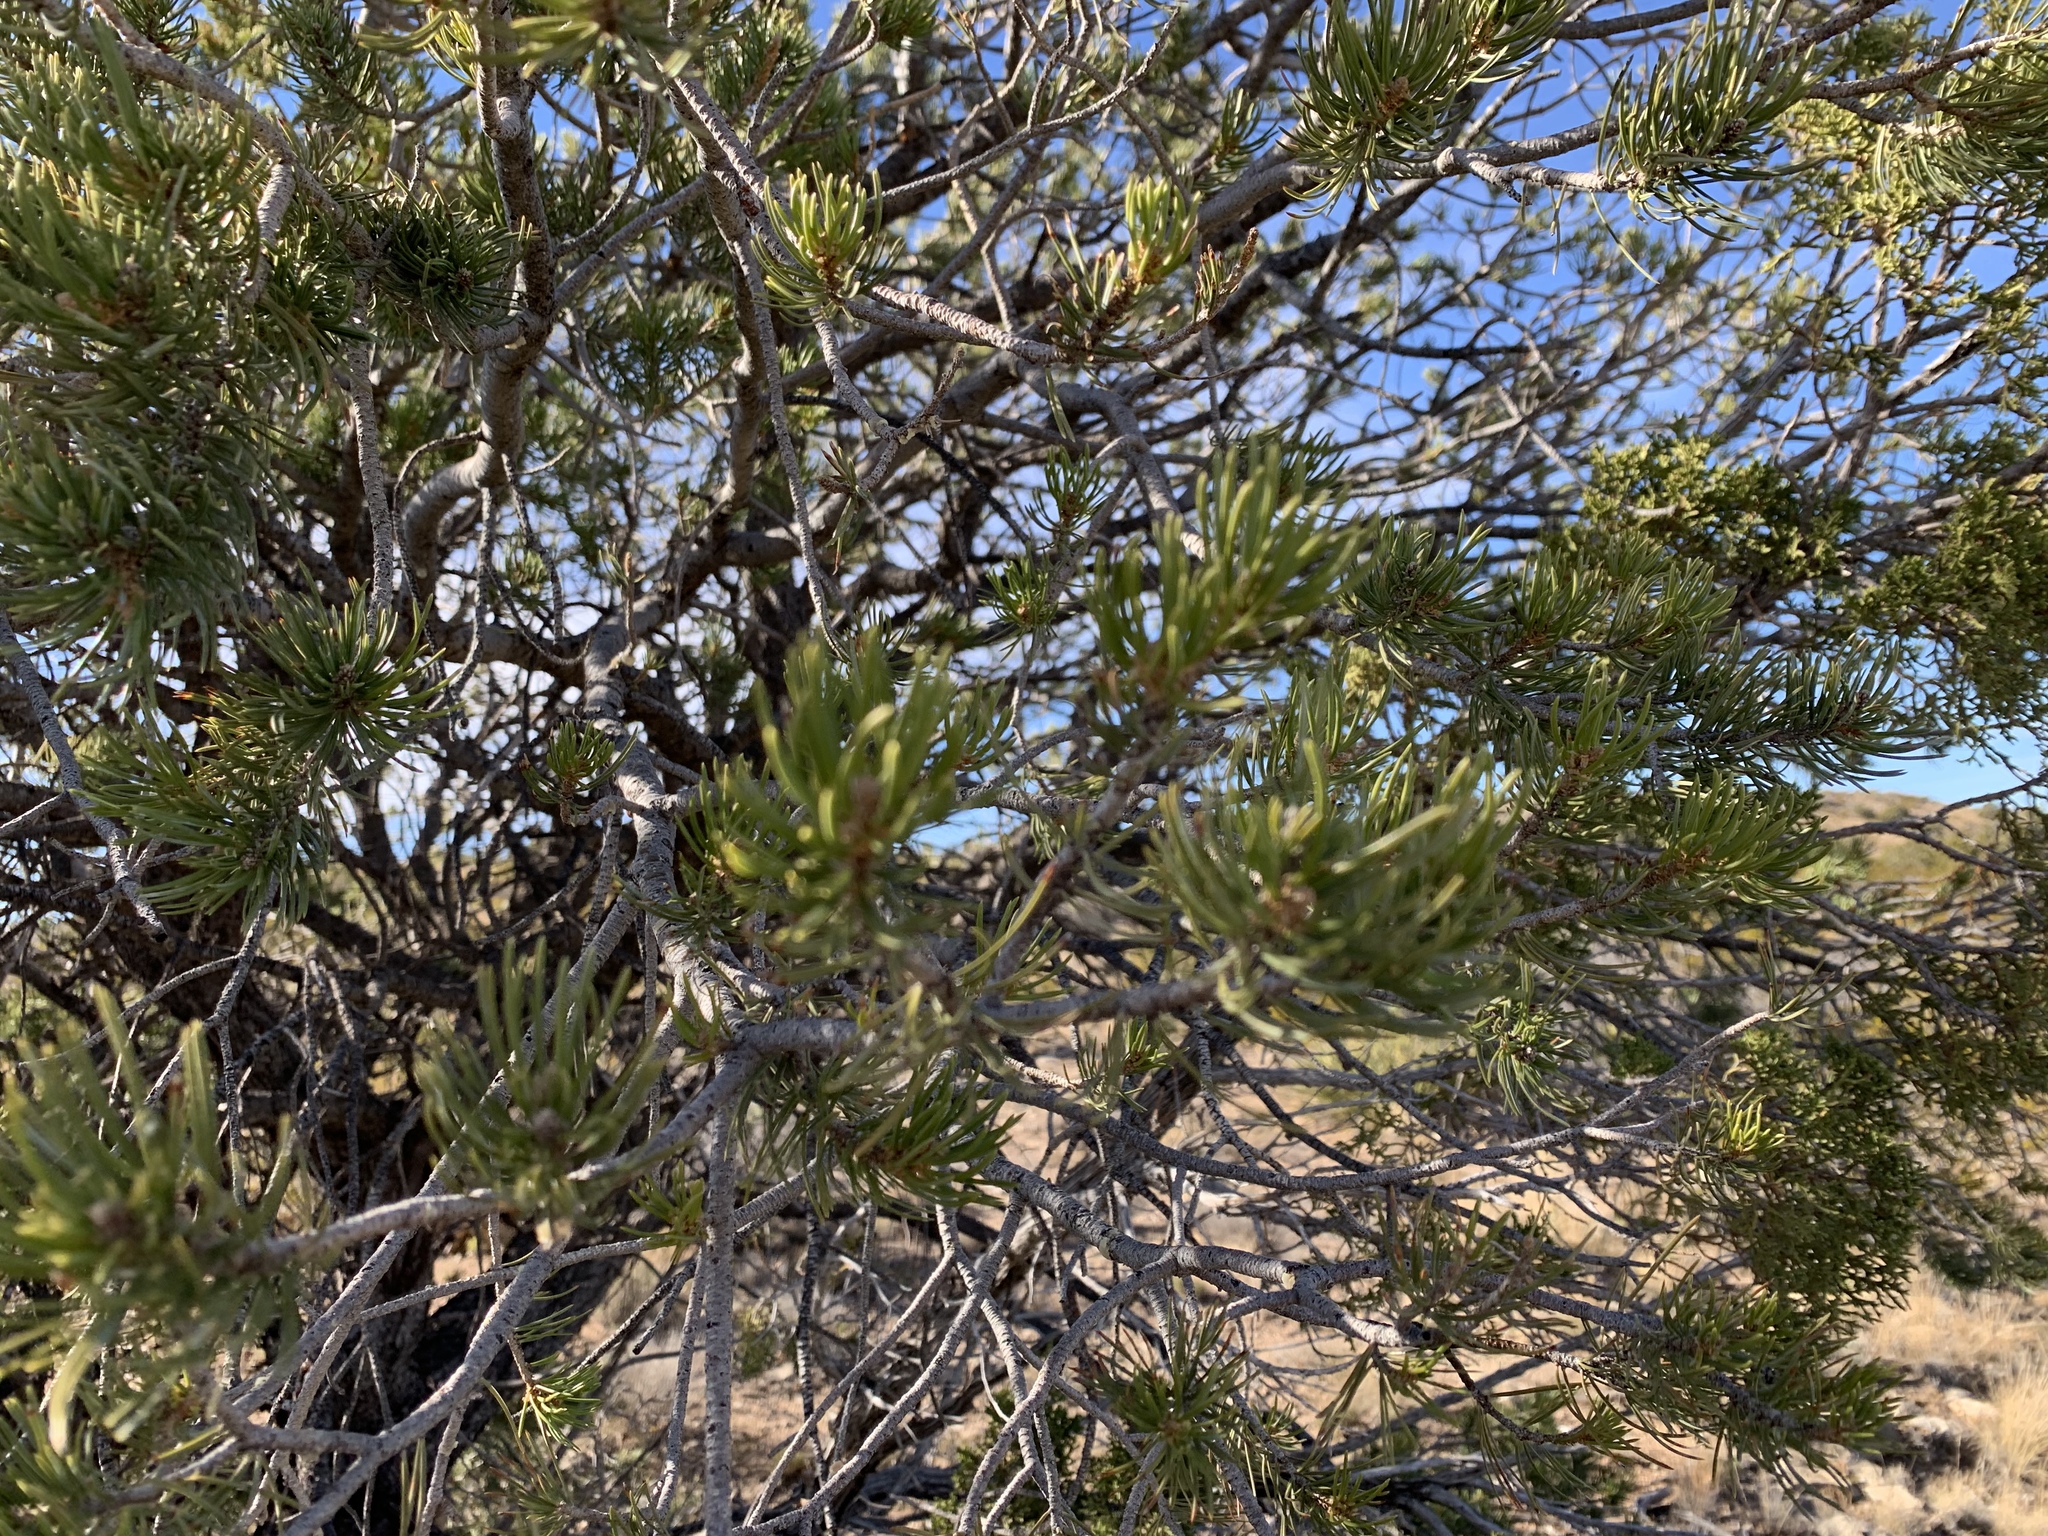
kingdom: Plantae
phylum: Tracheophyta
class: Pinopsida
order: Pinales
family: Pinaceae
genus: Pinus
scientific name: Pinus edulis
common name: Colorado pinyon
